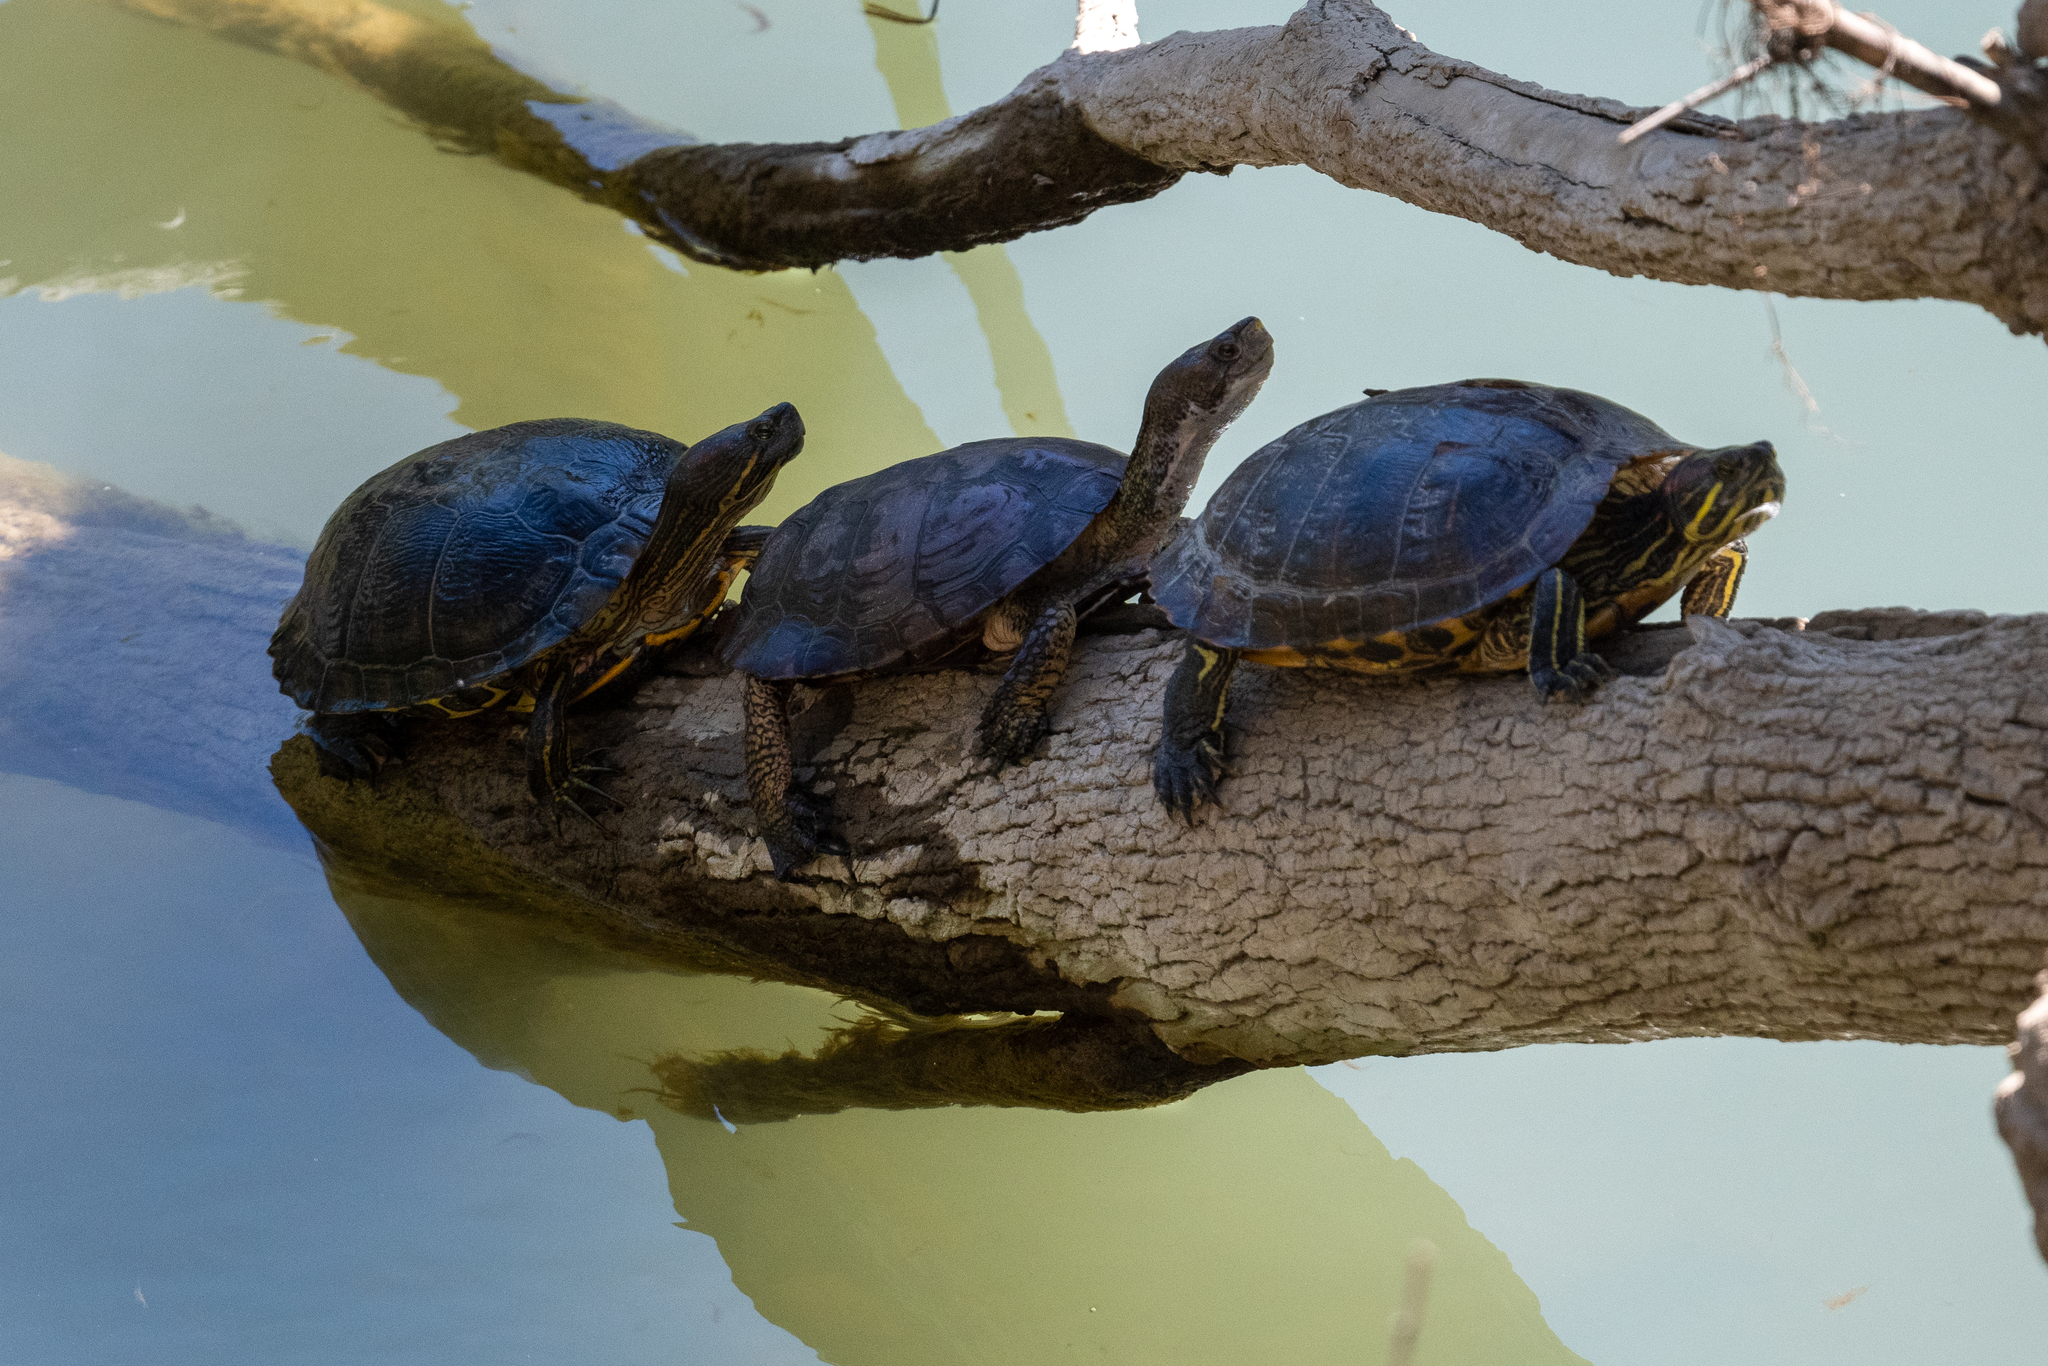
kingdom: Animalia
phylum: Chordata
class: Testudines
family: Emydidae
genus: Trachemys
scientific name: Trachemys scripta
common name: Slider
